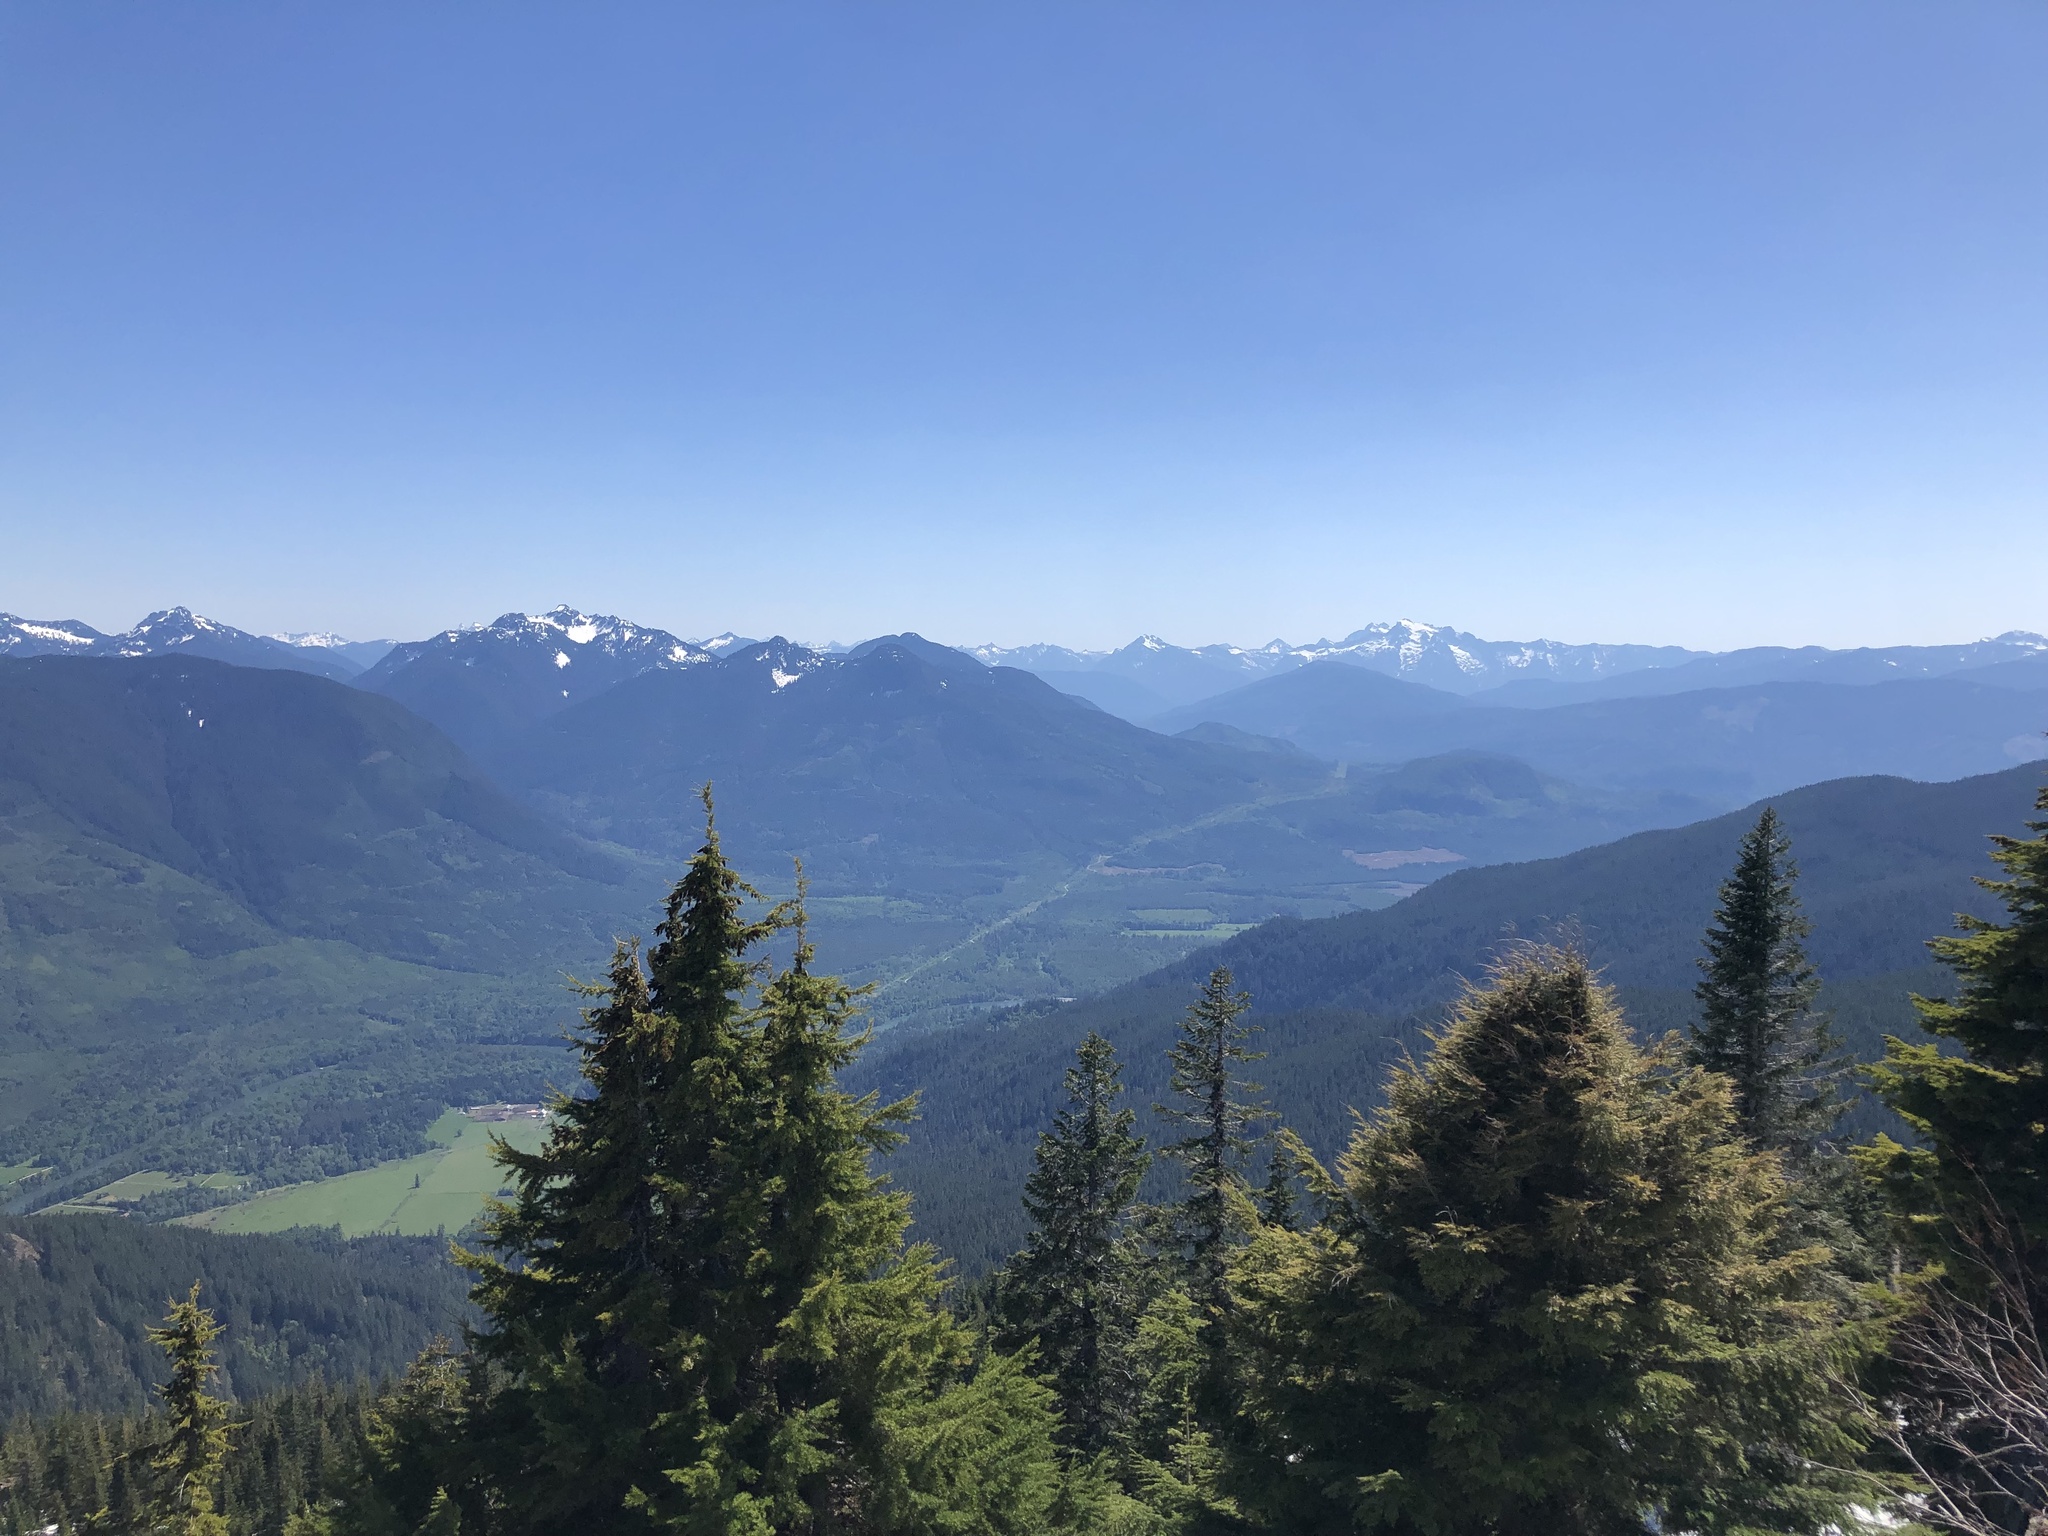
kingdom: Plantae
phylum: Tracheophyta
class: Pinopsida
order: Pinales
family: Pinaceae
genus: Tsuga
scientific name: Tsuga mertensiana
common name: Mountain hemlock
